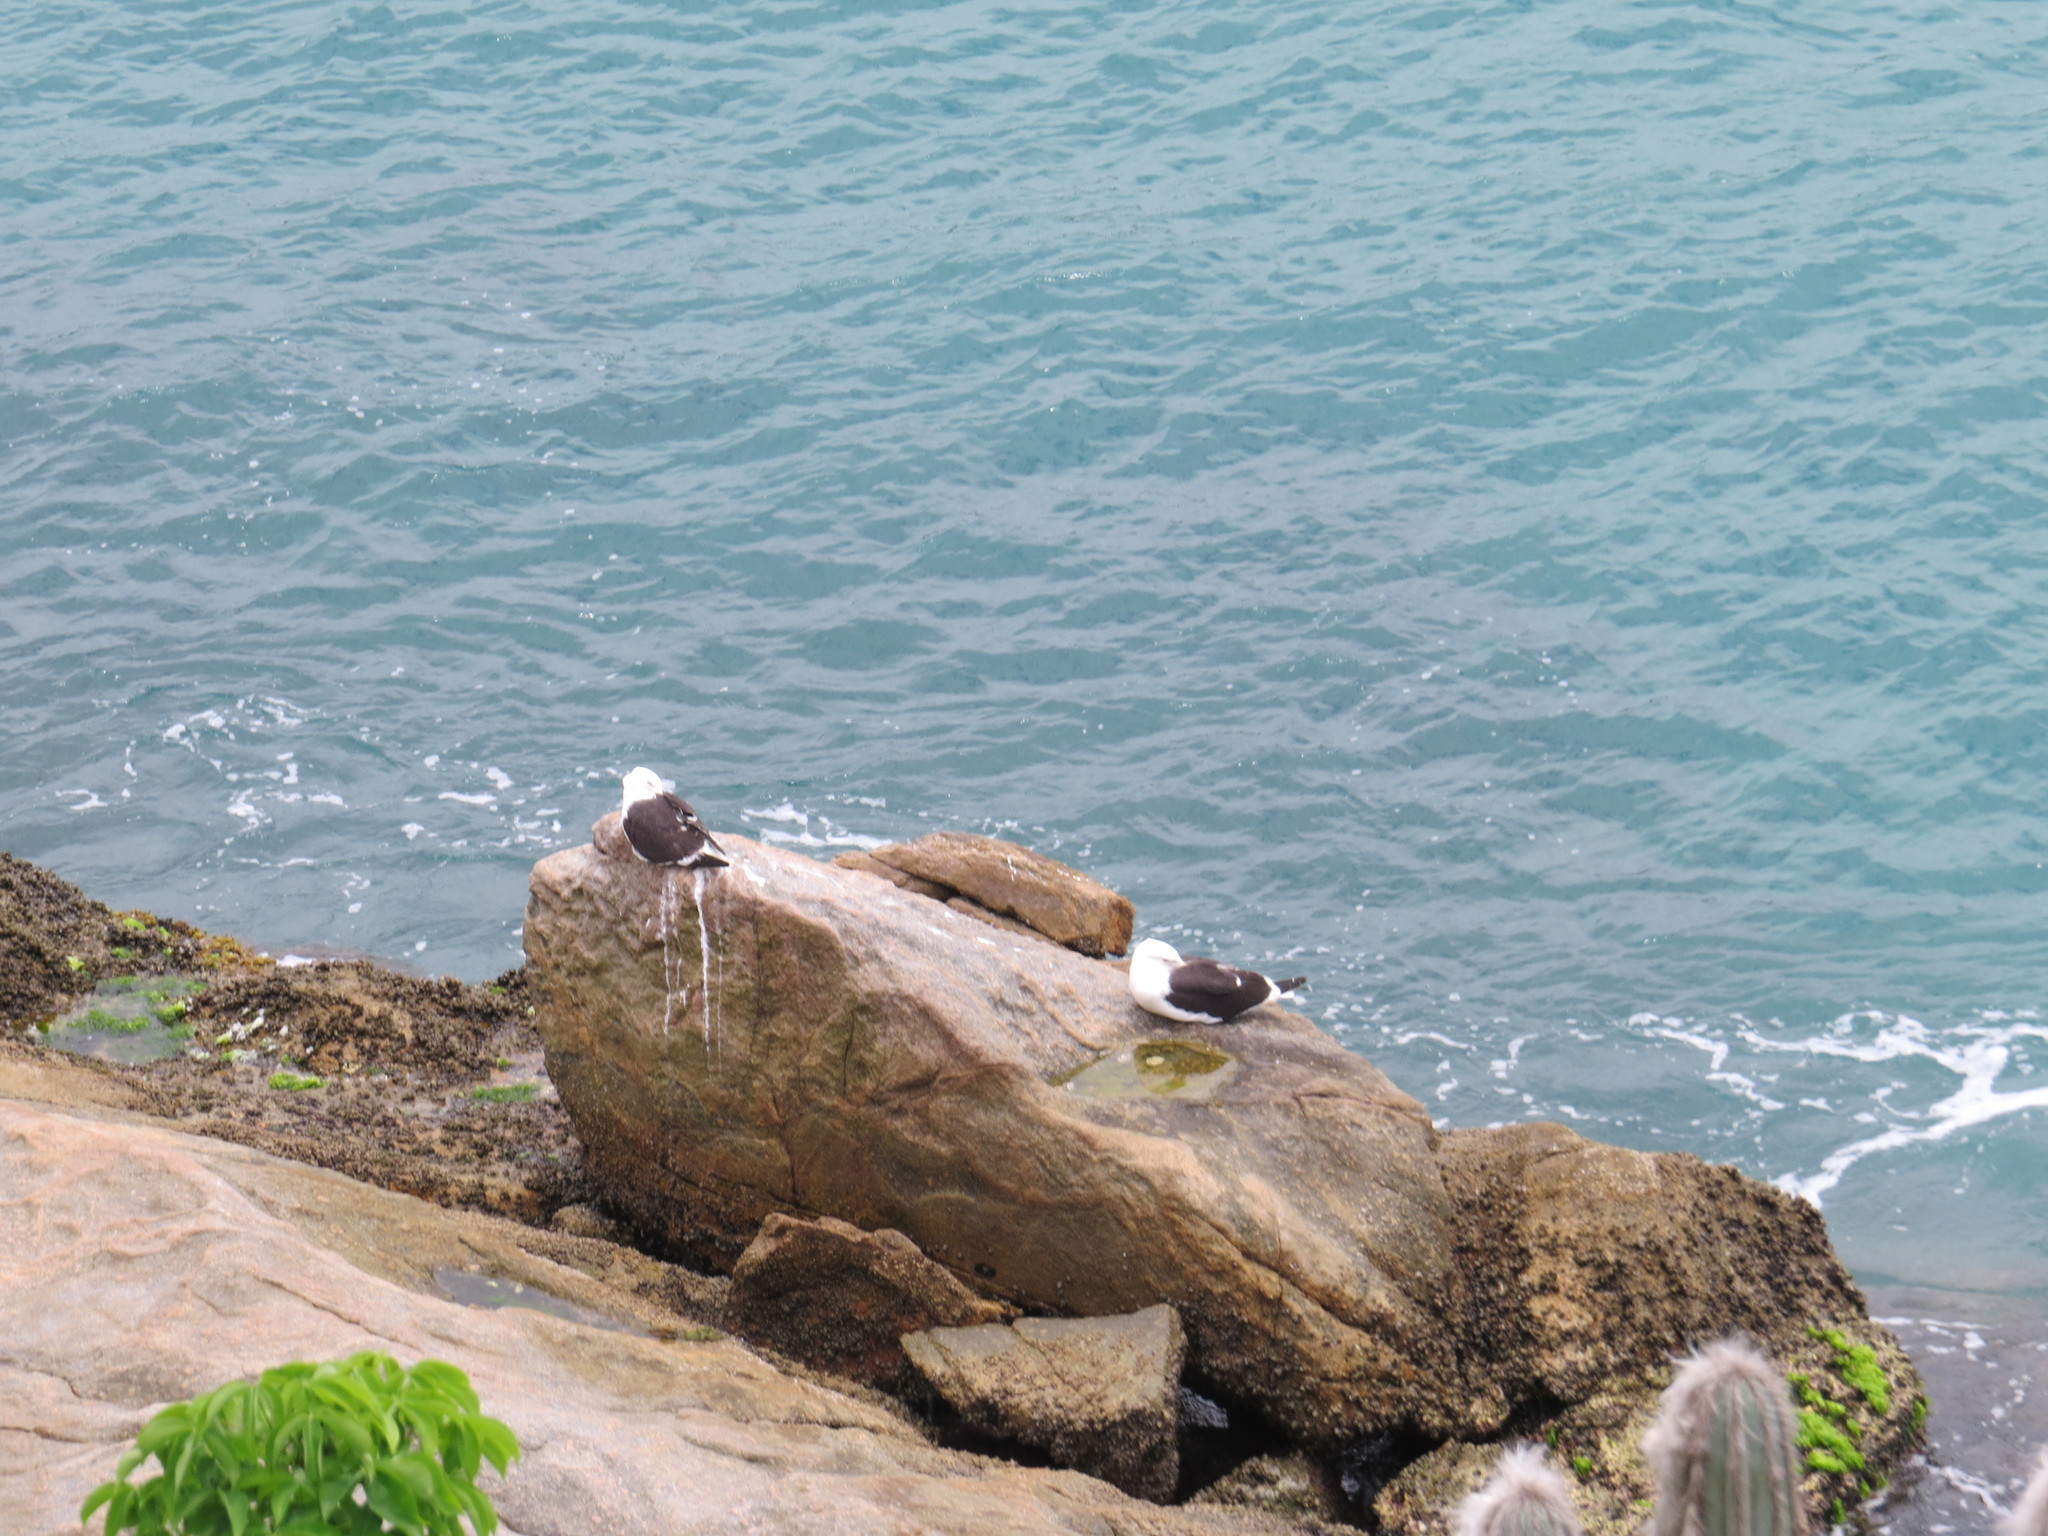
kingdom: Animalia
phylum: Chordata
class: Aves
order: Charadriiformes
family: Laridae
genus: Larus
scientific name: Larus dominicanus
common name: Kelp gull
